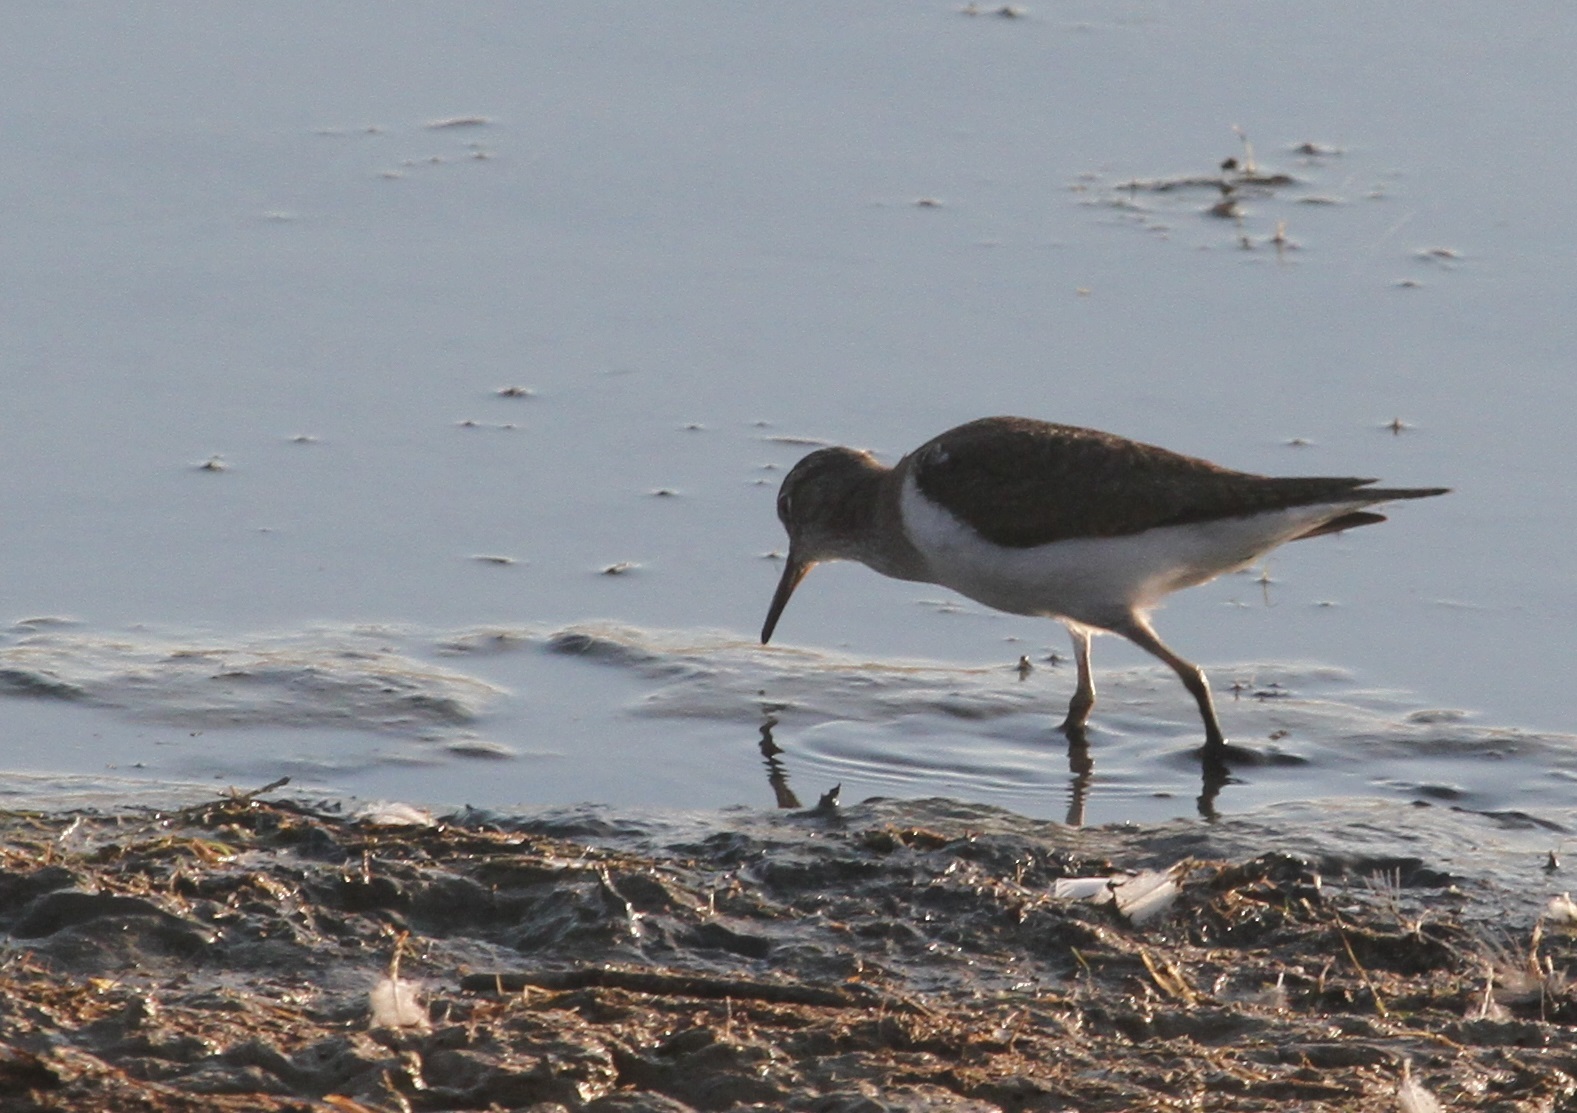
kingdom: Animalia
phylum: Chordata
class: Aves
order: Charadriiformes
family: Scolopacidae
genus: Actitis
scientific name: Actitis hypoleucos
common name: Common sandpiper
